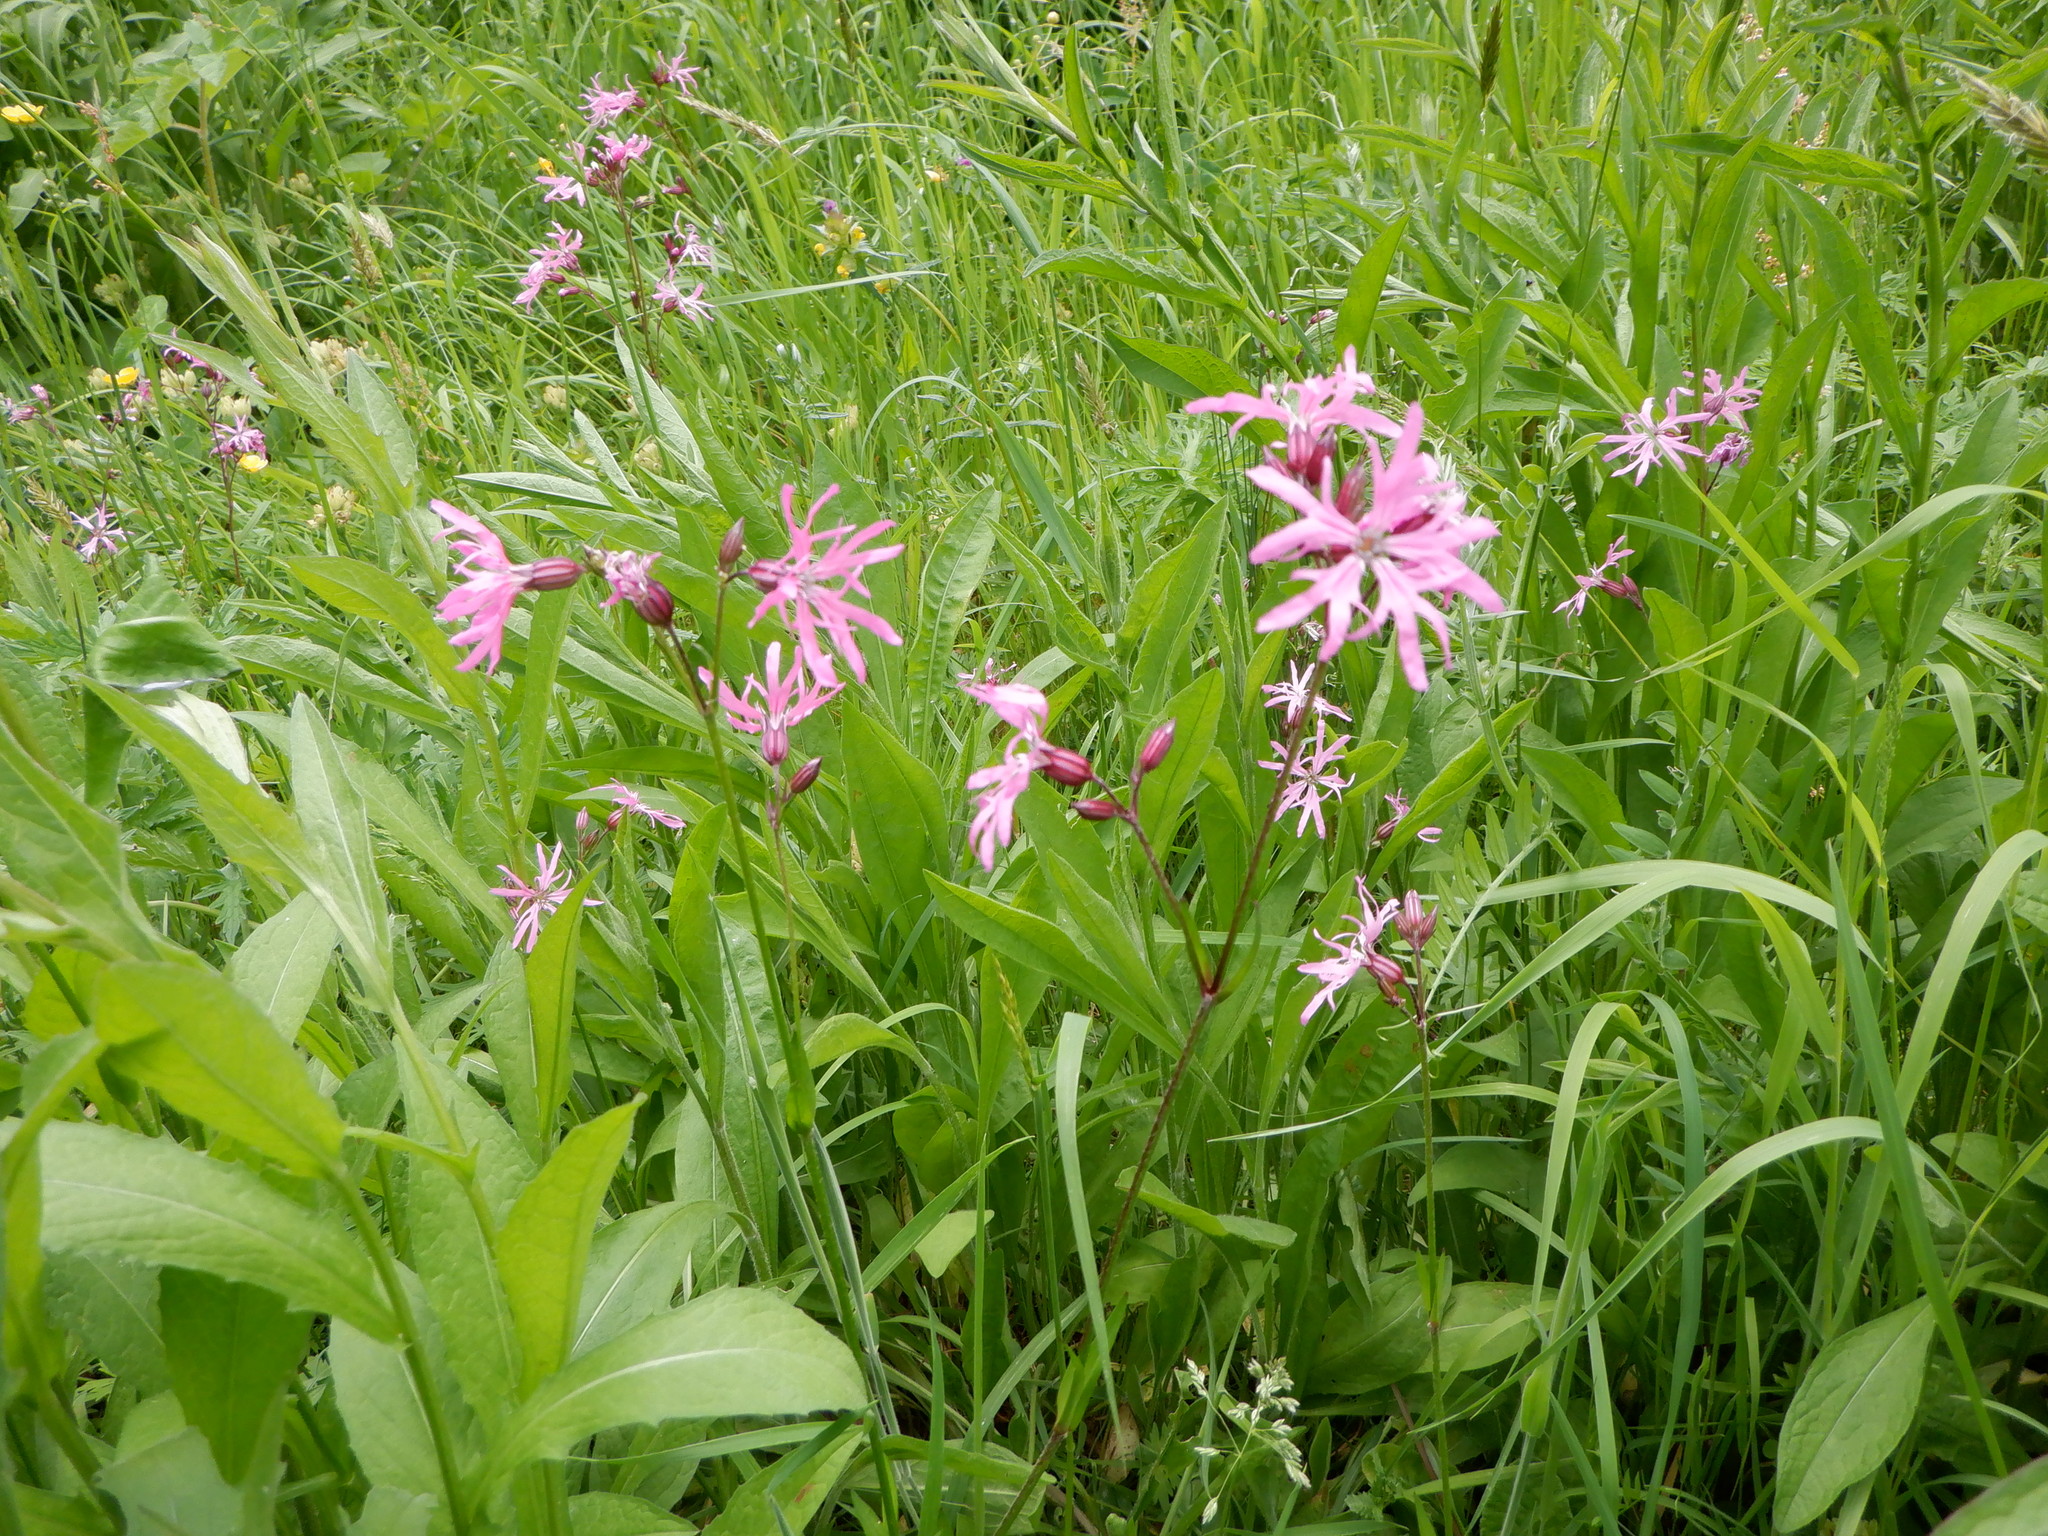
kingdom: Plantae
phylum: Tracheophyta
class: Magnoliopsida
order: Caryophyllales
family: Caryophyllaceae
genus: Silene
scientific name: Silene flos-cuculi
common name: Ragged-robin
